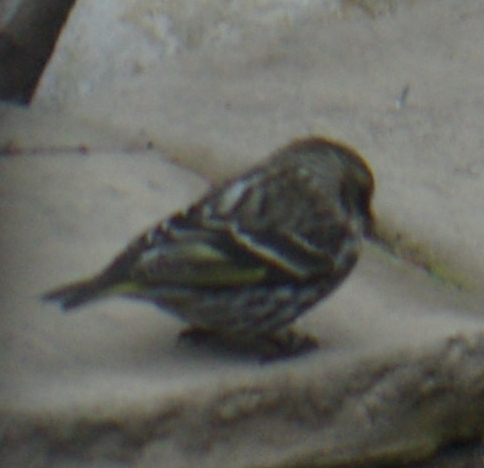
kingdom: Animalia
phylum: Chordata
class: Aves
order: Passeriformes
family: Fringillidae
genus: Spinus
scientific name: Spinus pinus
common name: Pine siskin
